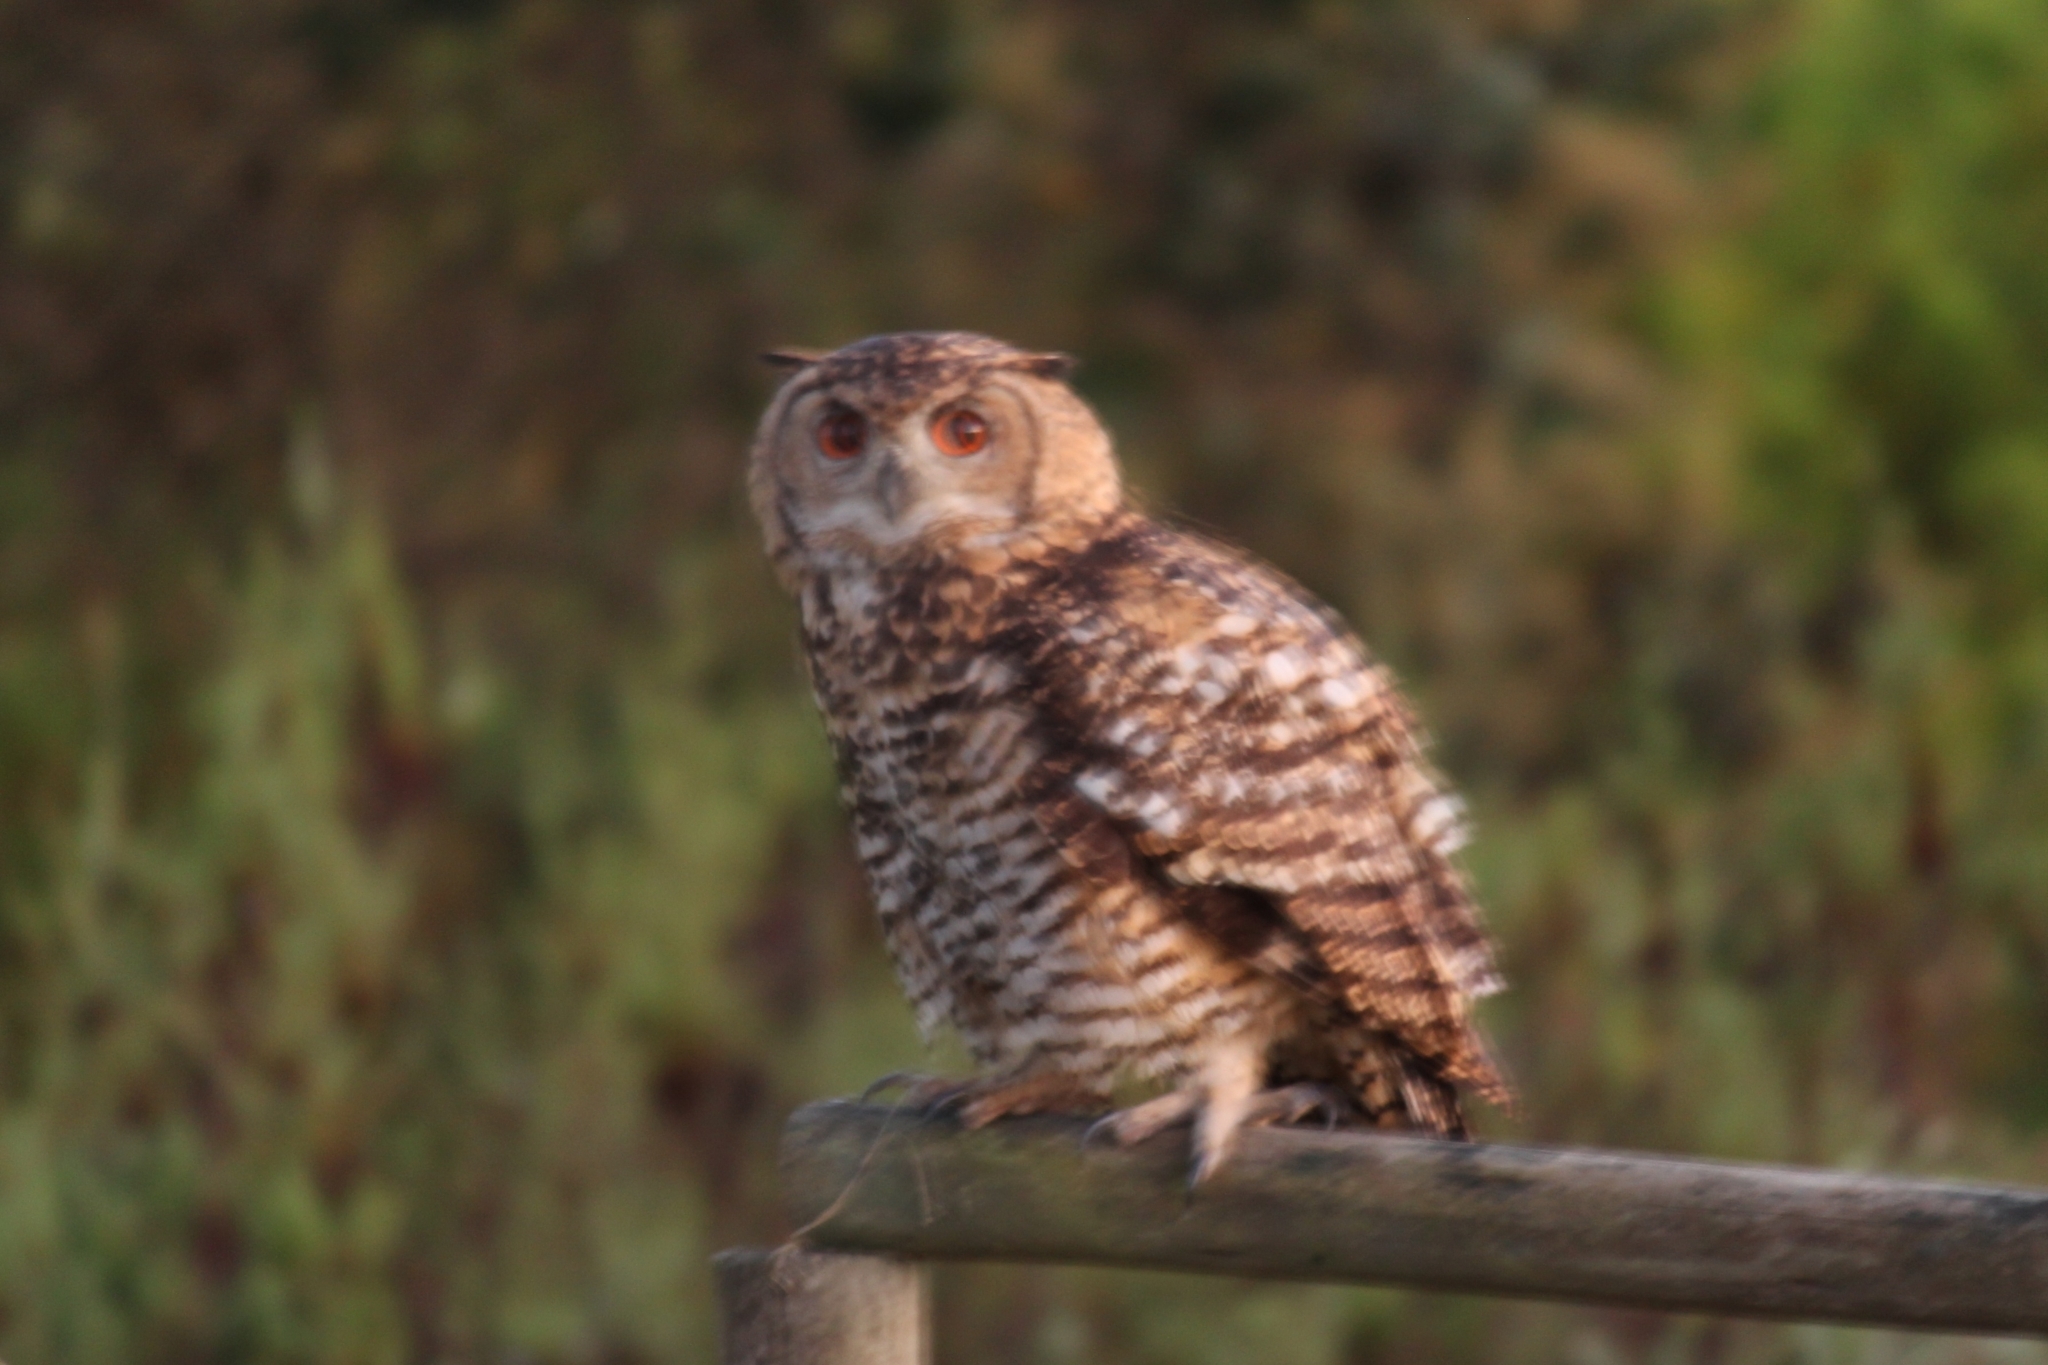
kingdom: Animalia
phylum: Chordata
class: Aves
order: Strigiformes
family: Strigidae
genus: Bubo
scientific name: Bubo capensis
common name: Cape eagle-owl
